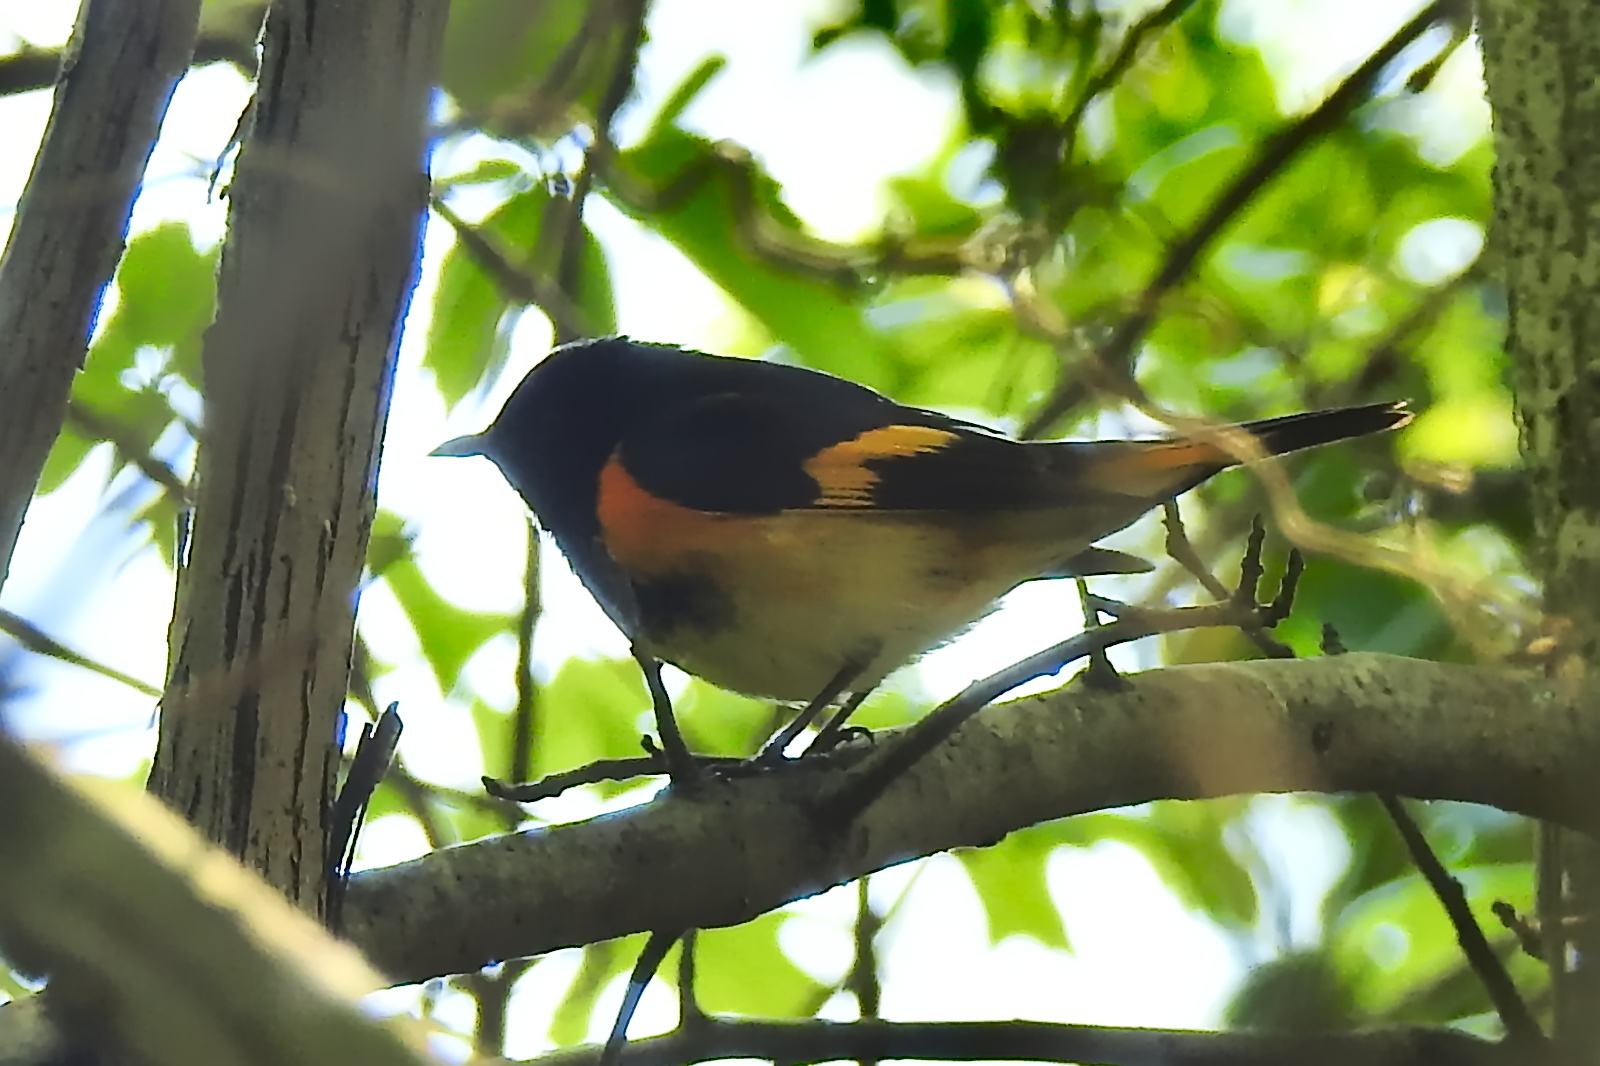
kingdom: Animalia
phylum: Chordata
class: Aves
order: Passeriformes
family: Parulidae
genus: Setophaga
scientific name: Setophaga ruticilla
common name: American redstart
